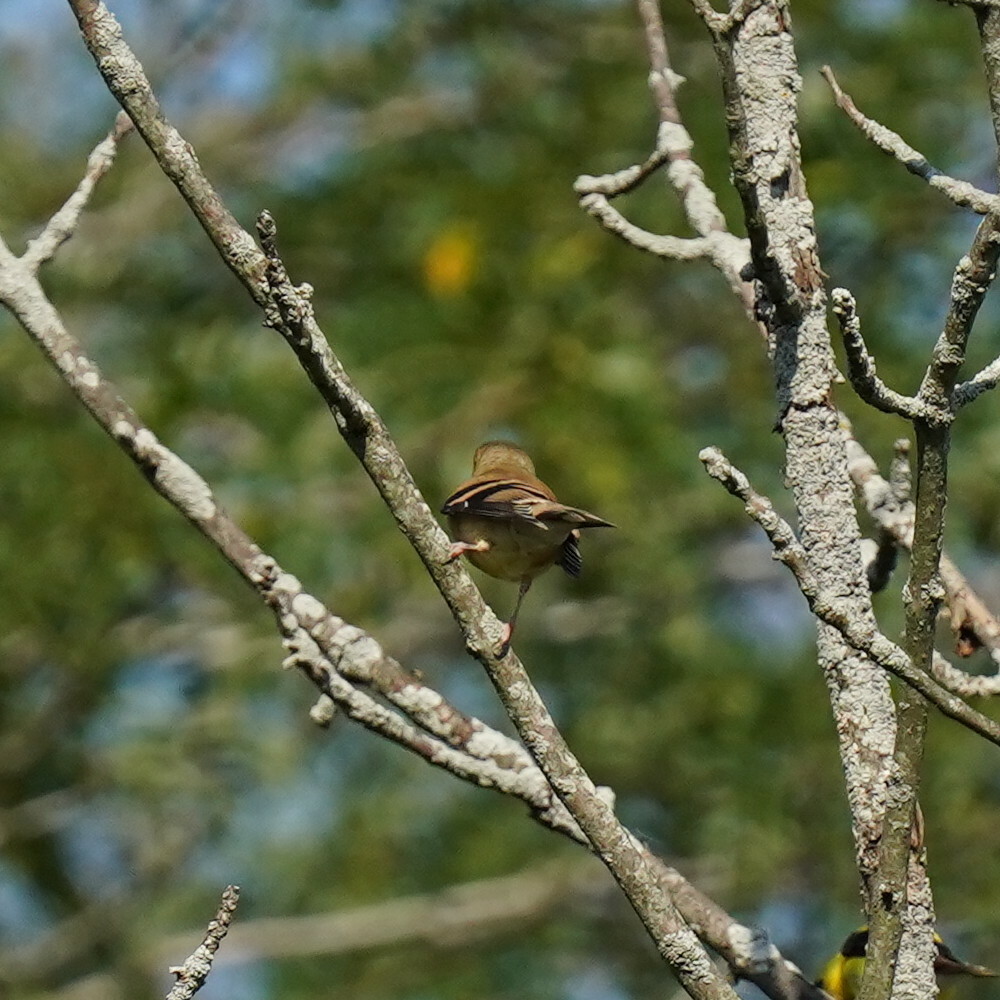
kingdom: Animalia
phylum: Chordata
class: Aves
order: Passeriformes
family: Fringillidae
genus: Spinus
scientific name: Spinus tristis
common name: American goldfinch
